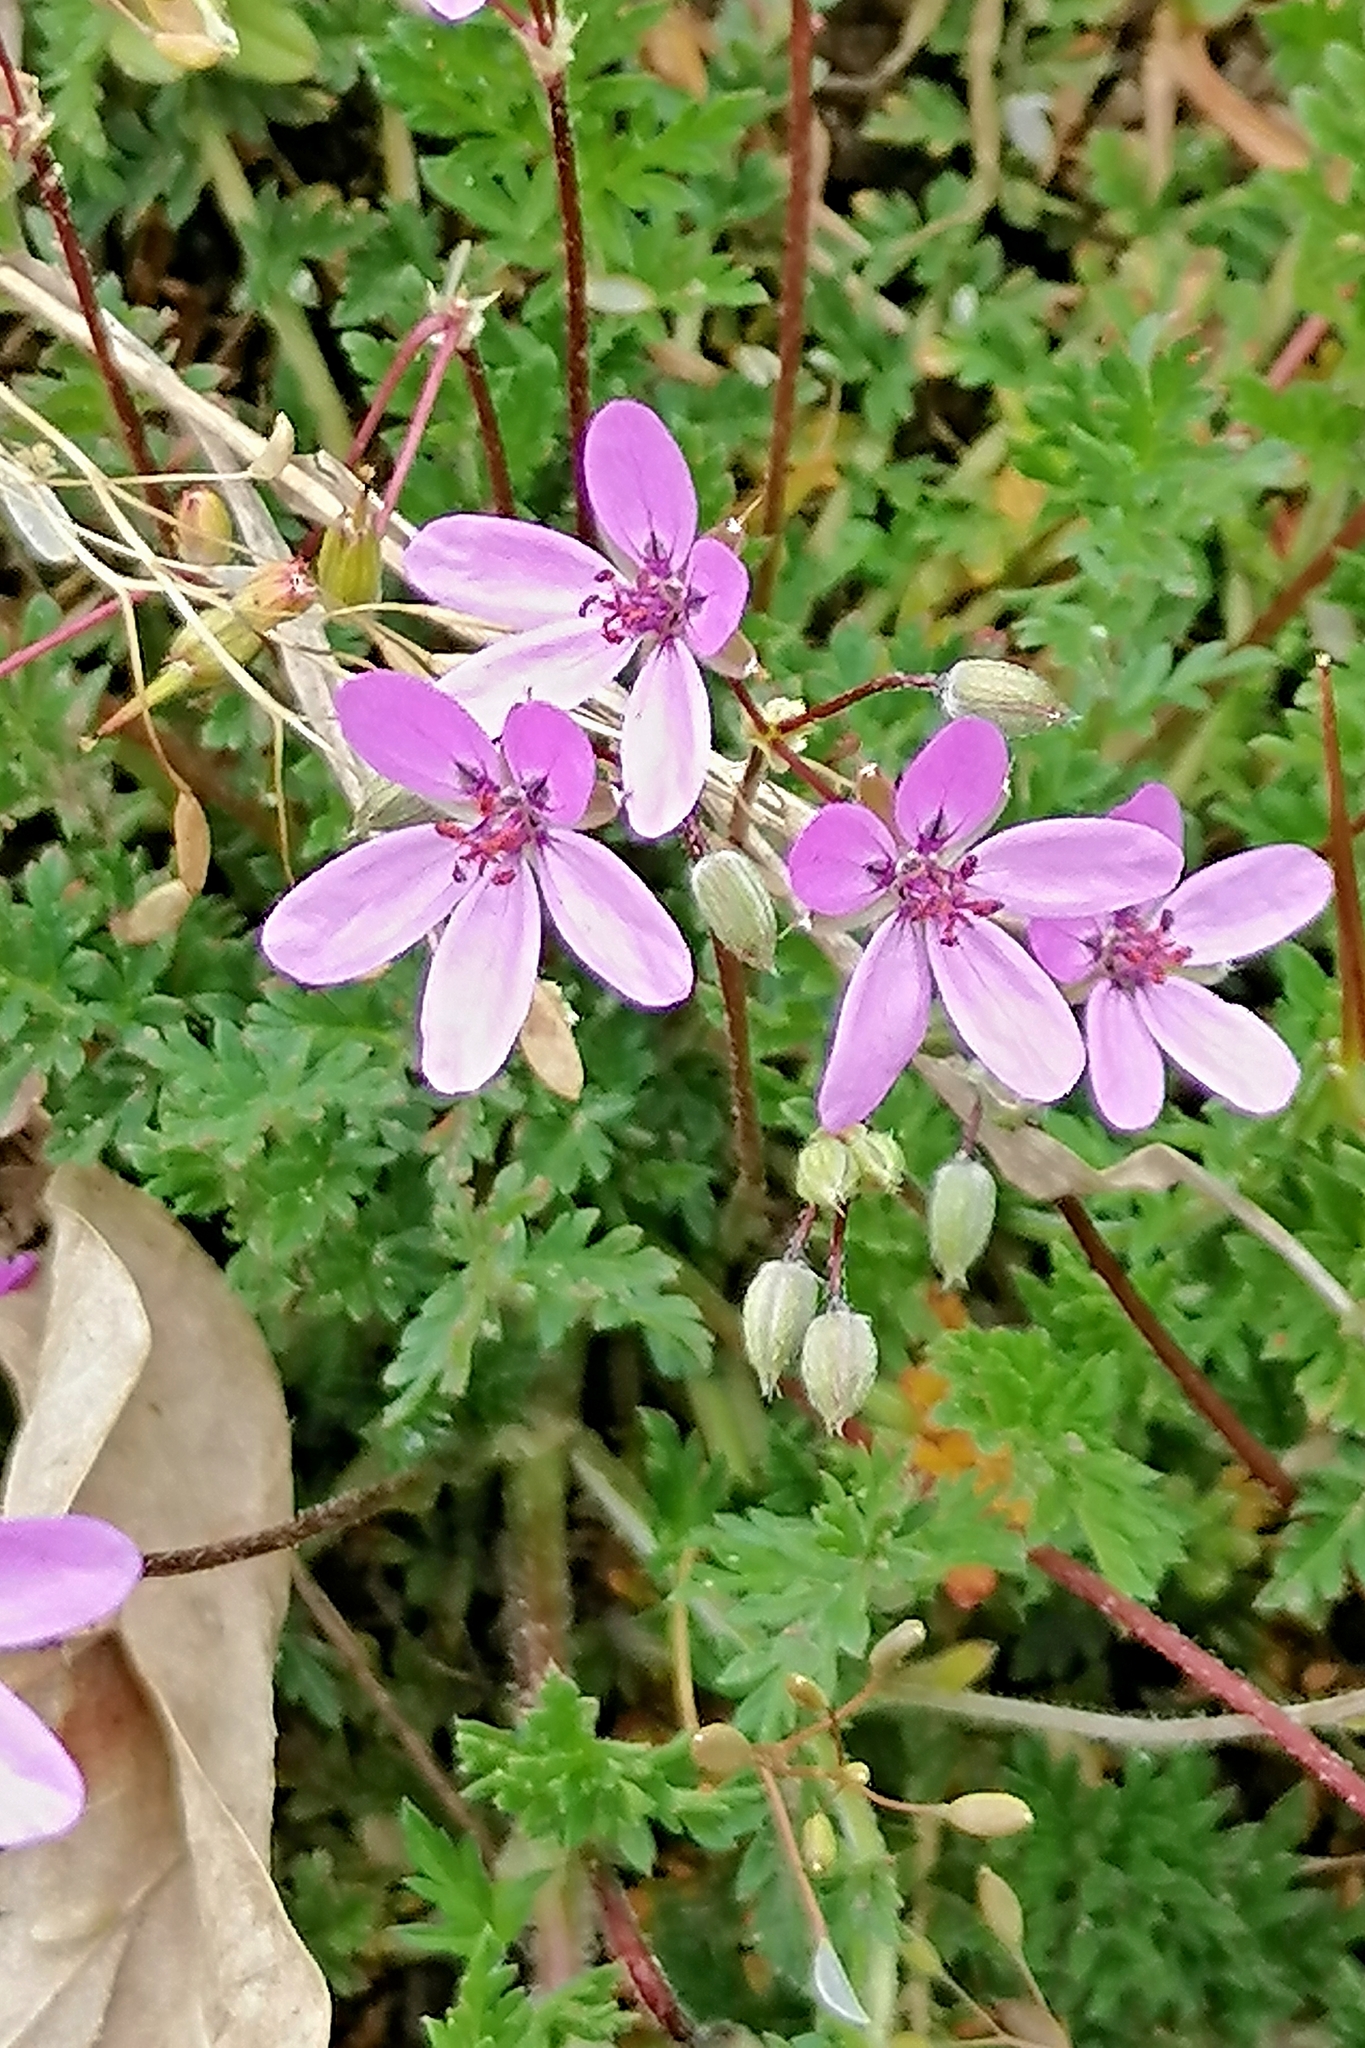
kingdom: Plantae
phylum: Tracheophyta
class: Magnoliopsida
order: Geraniales
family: Geraniaceae
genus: Erodium
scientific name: Erodium cicutarium
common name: Common stork's-bill
